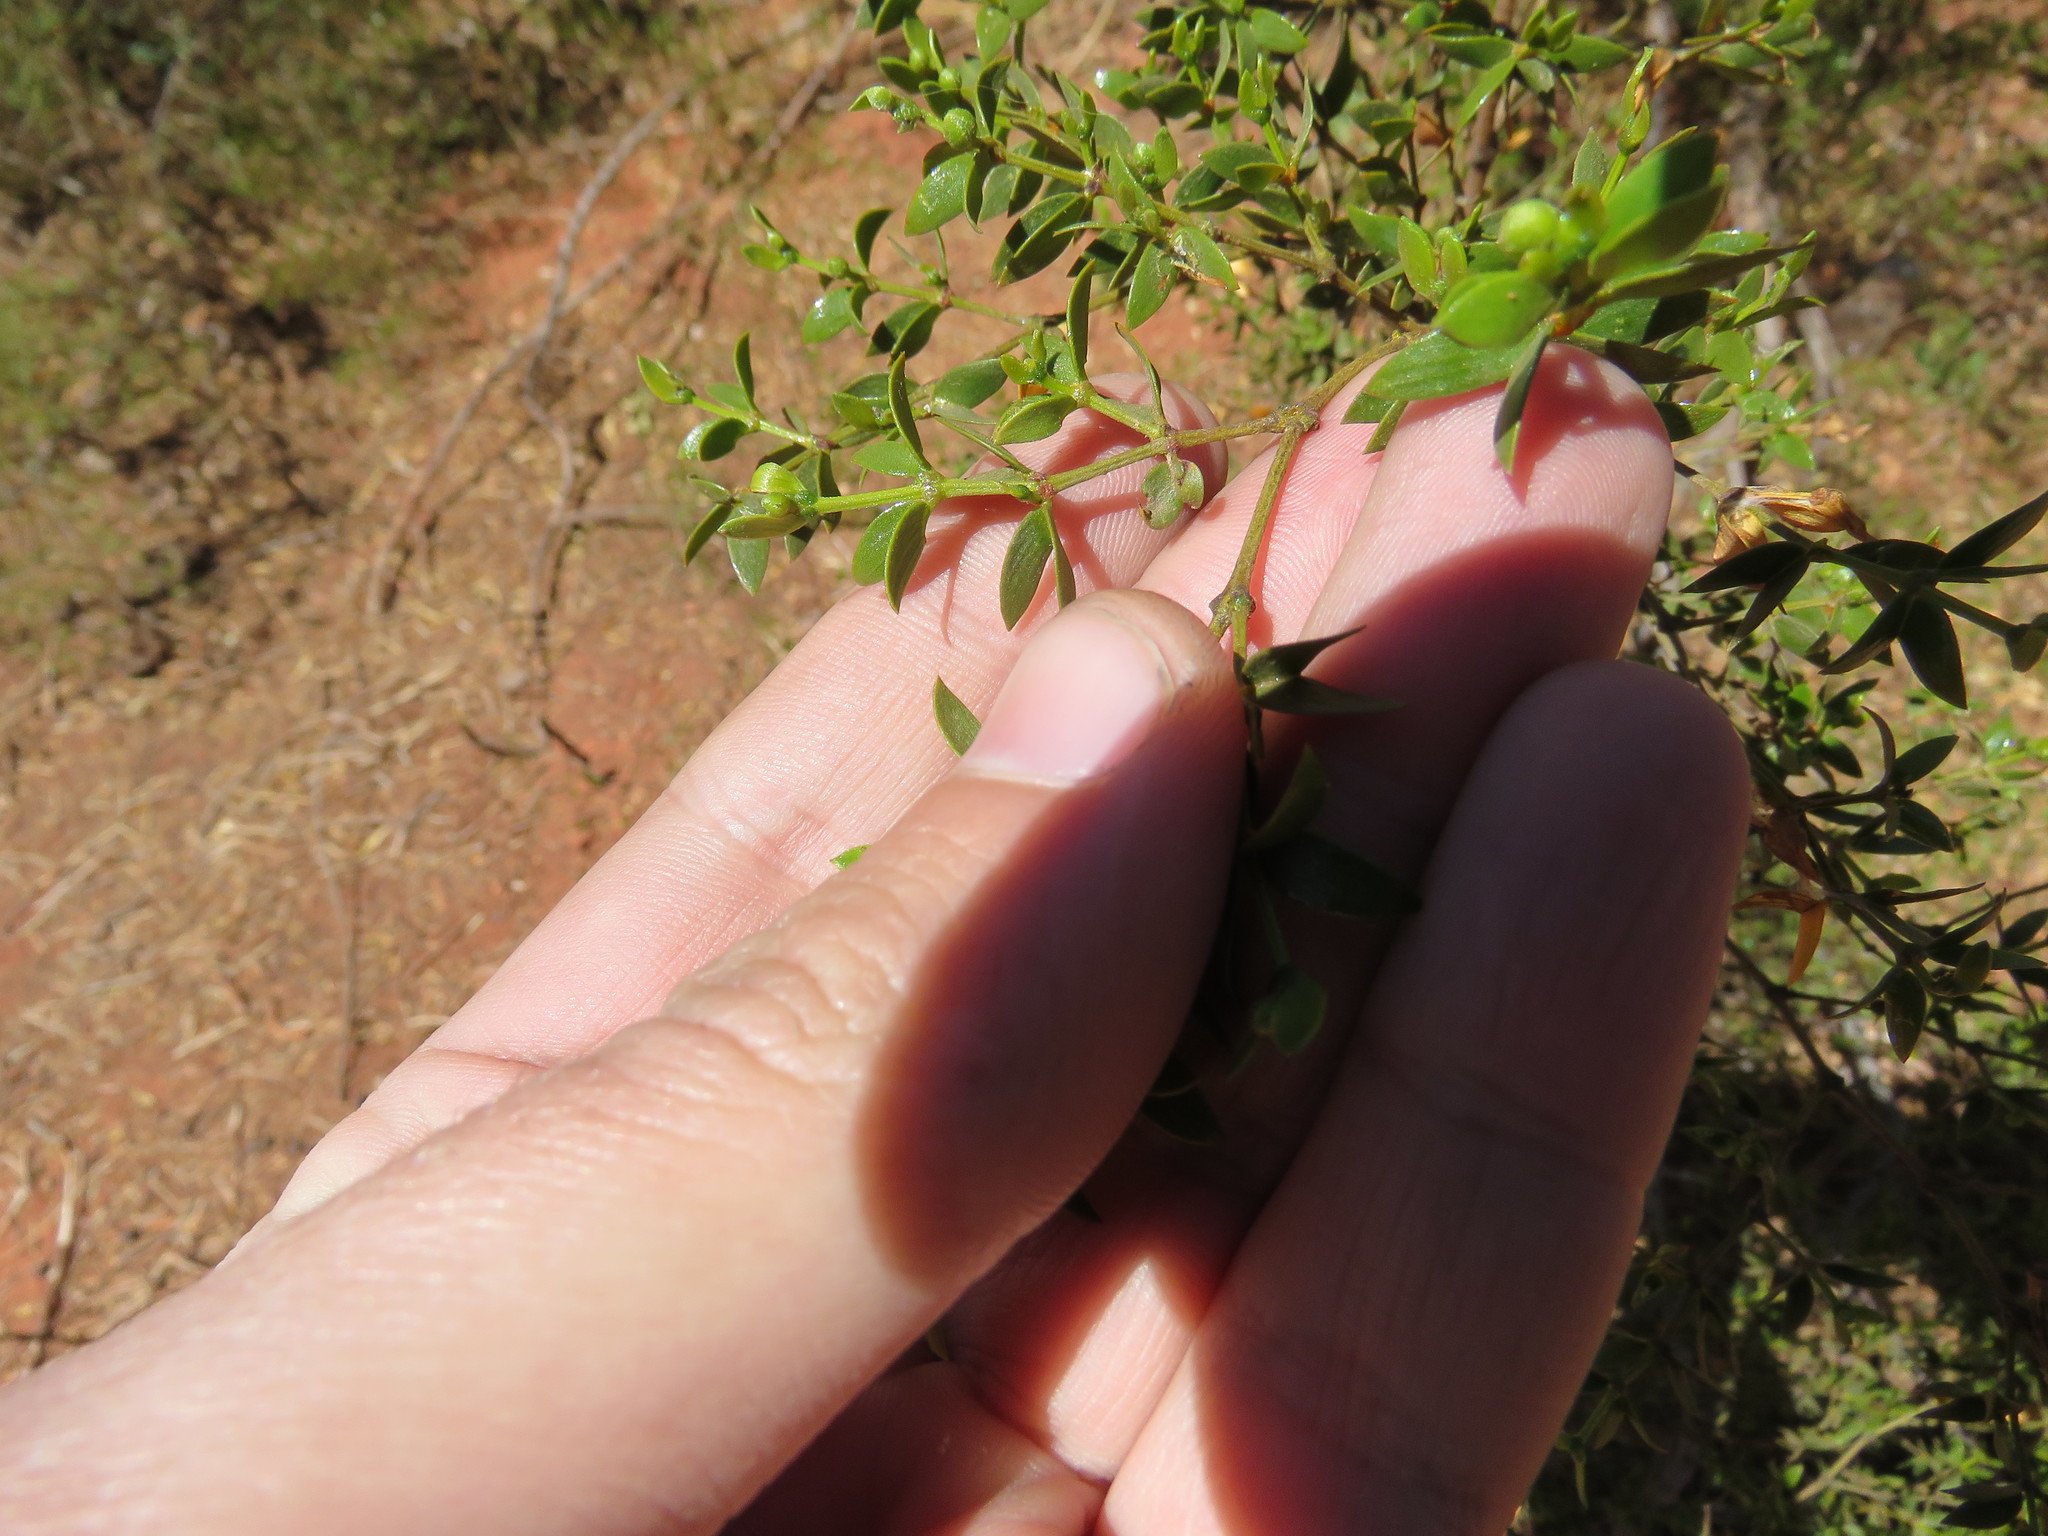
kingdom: Plantae
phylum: Tracheophyta
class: Magnoliopsida
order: Zygophyllales
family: Zygophyllaceae
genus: Larrea
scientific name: Larrea divaricata
